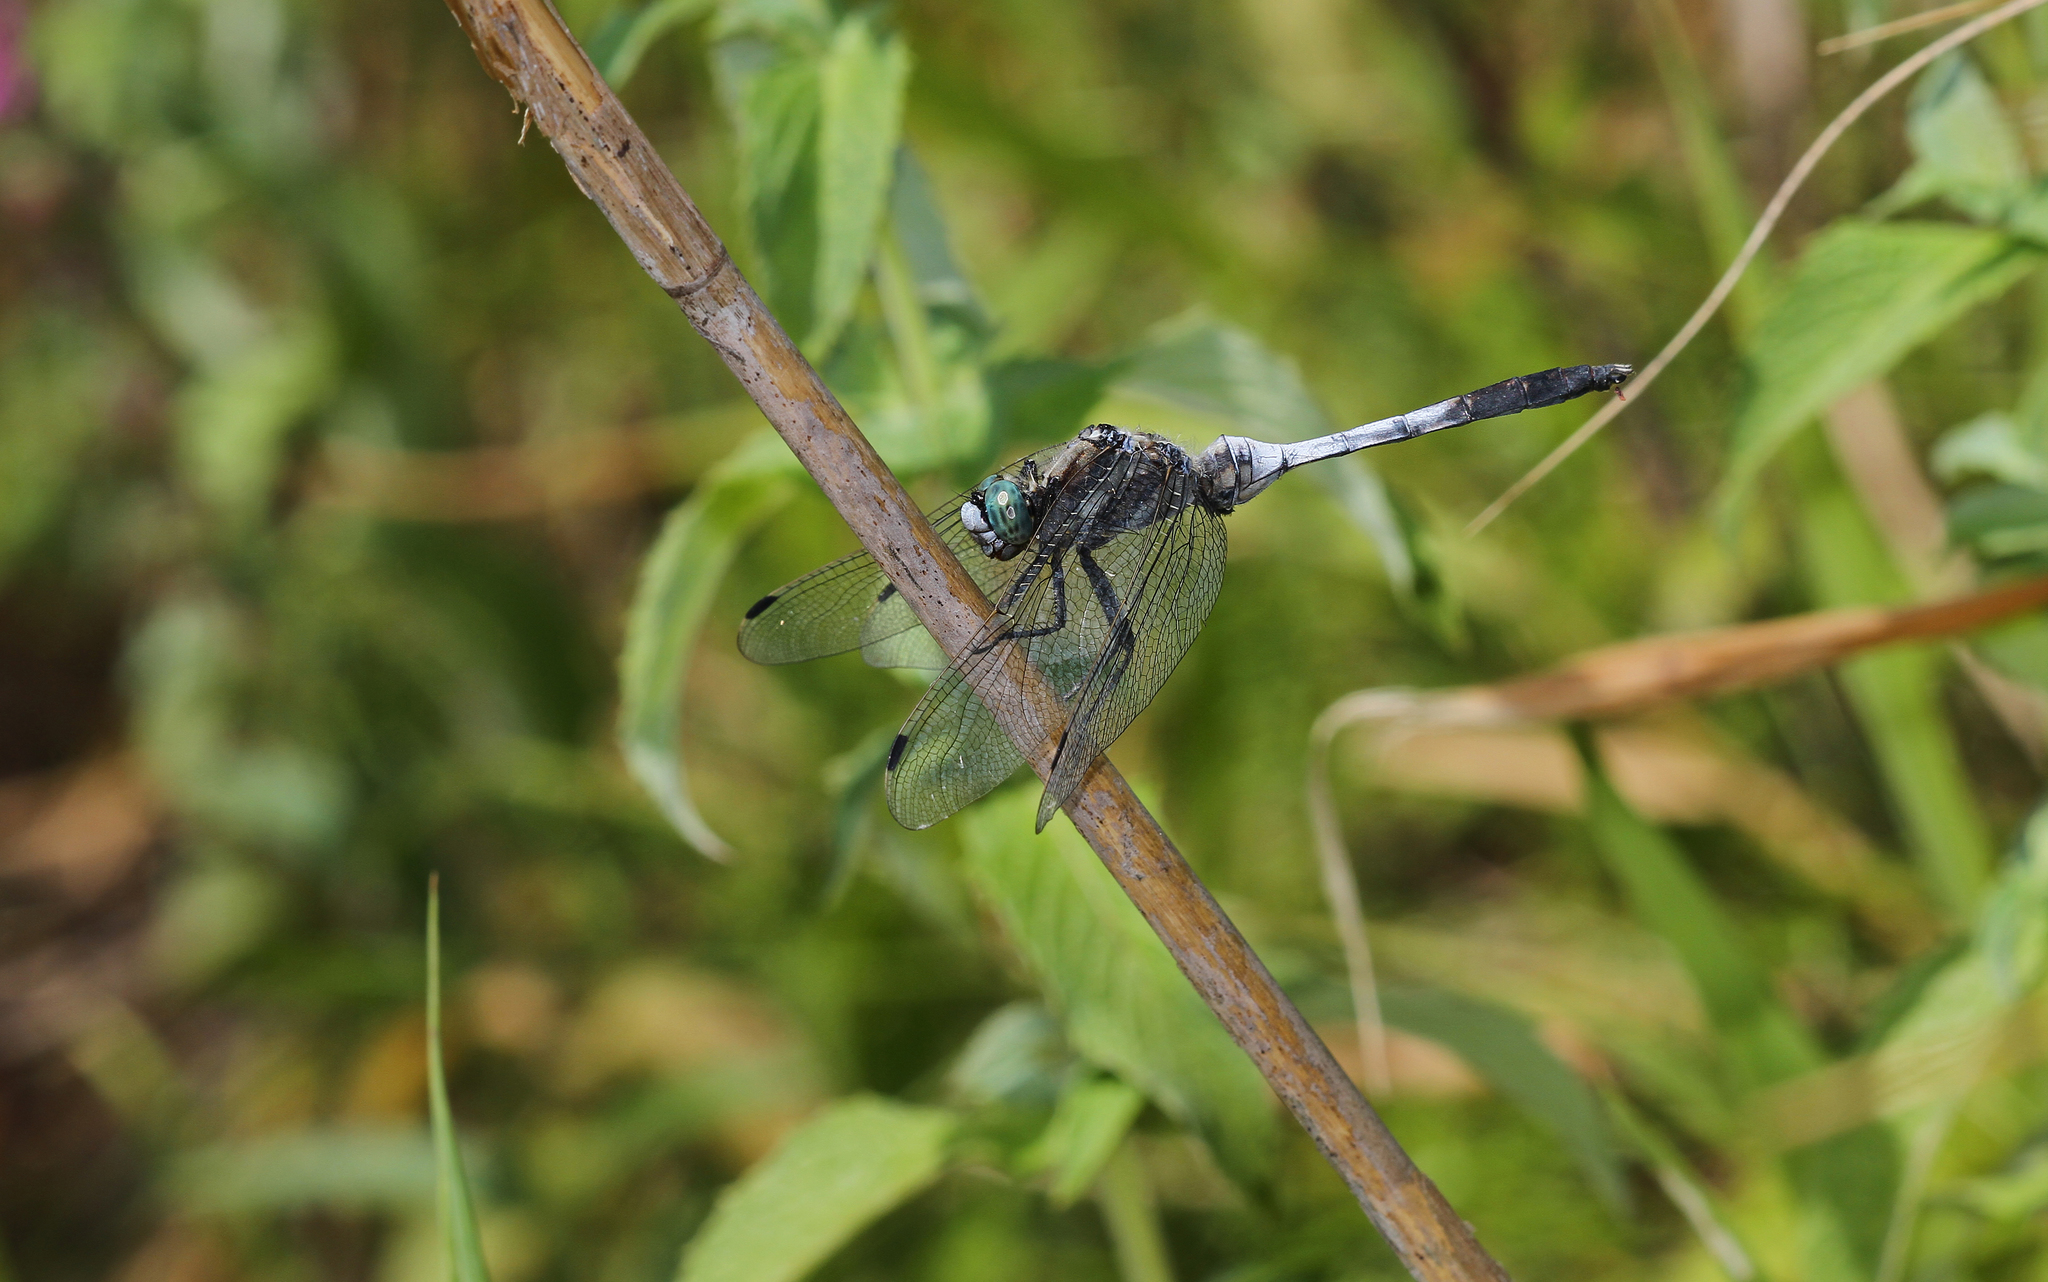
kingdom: Animalia
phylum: Arthropoda
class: Insecta
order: Odonata
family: Libellulidae
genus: Orthetrum
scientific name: Orthetrum albistylum
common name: White-tailed skimmer
